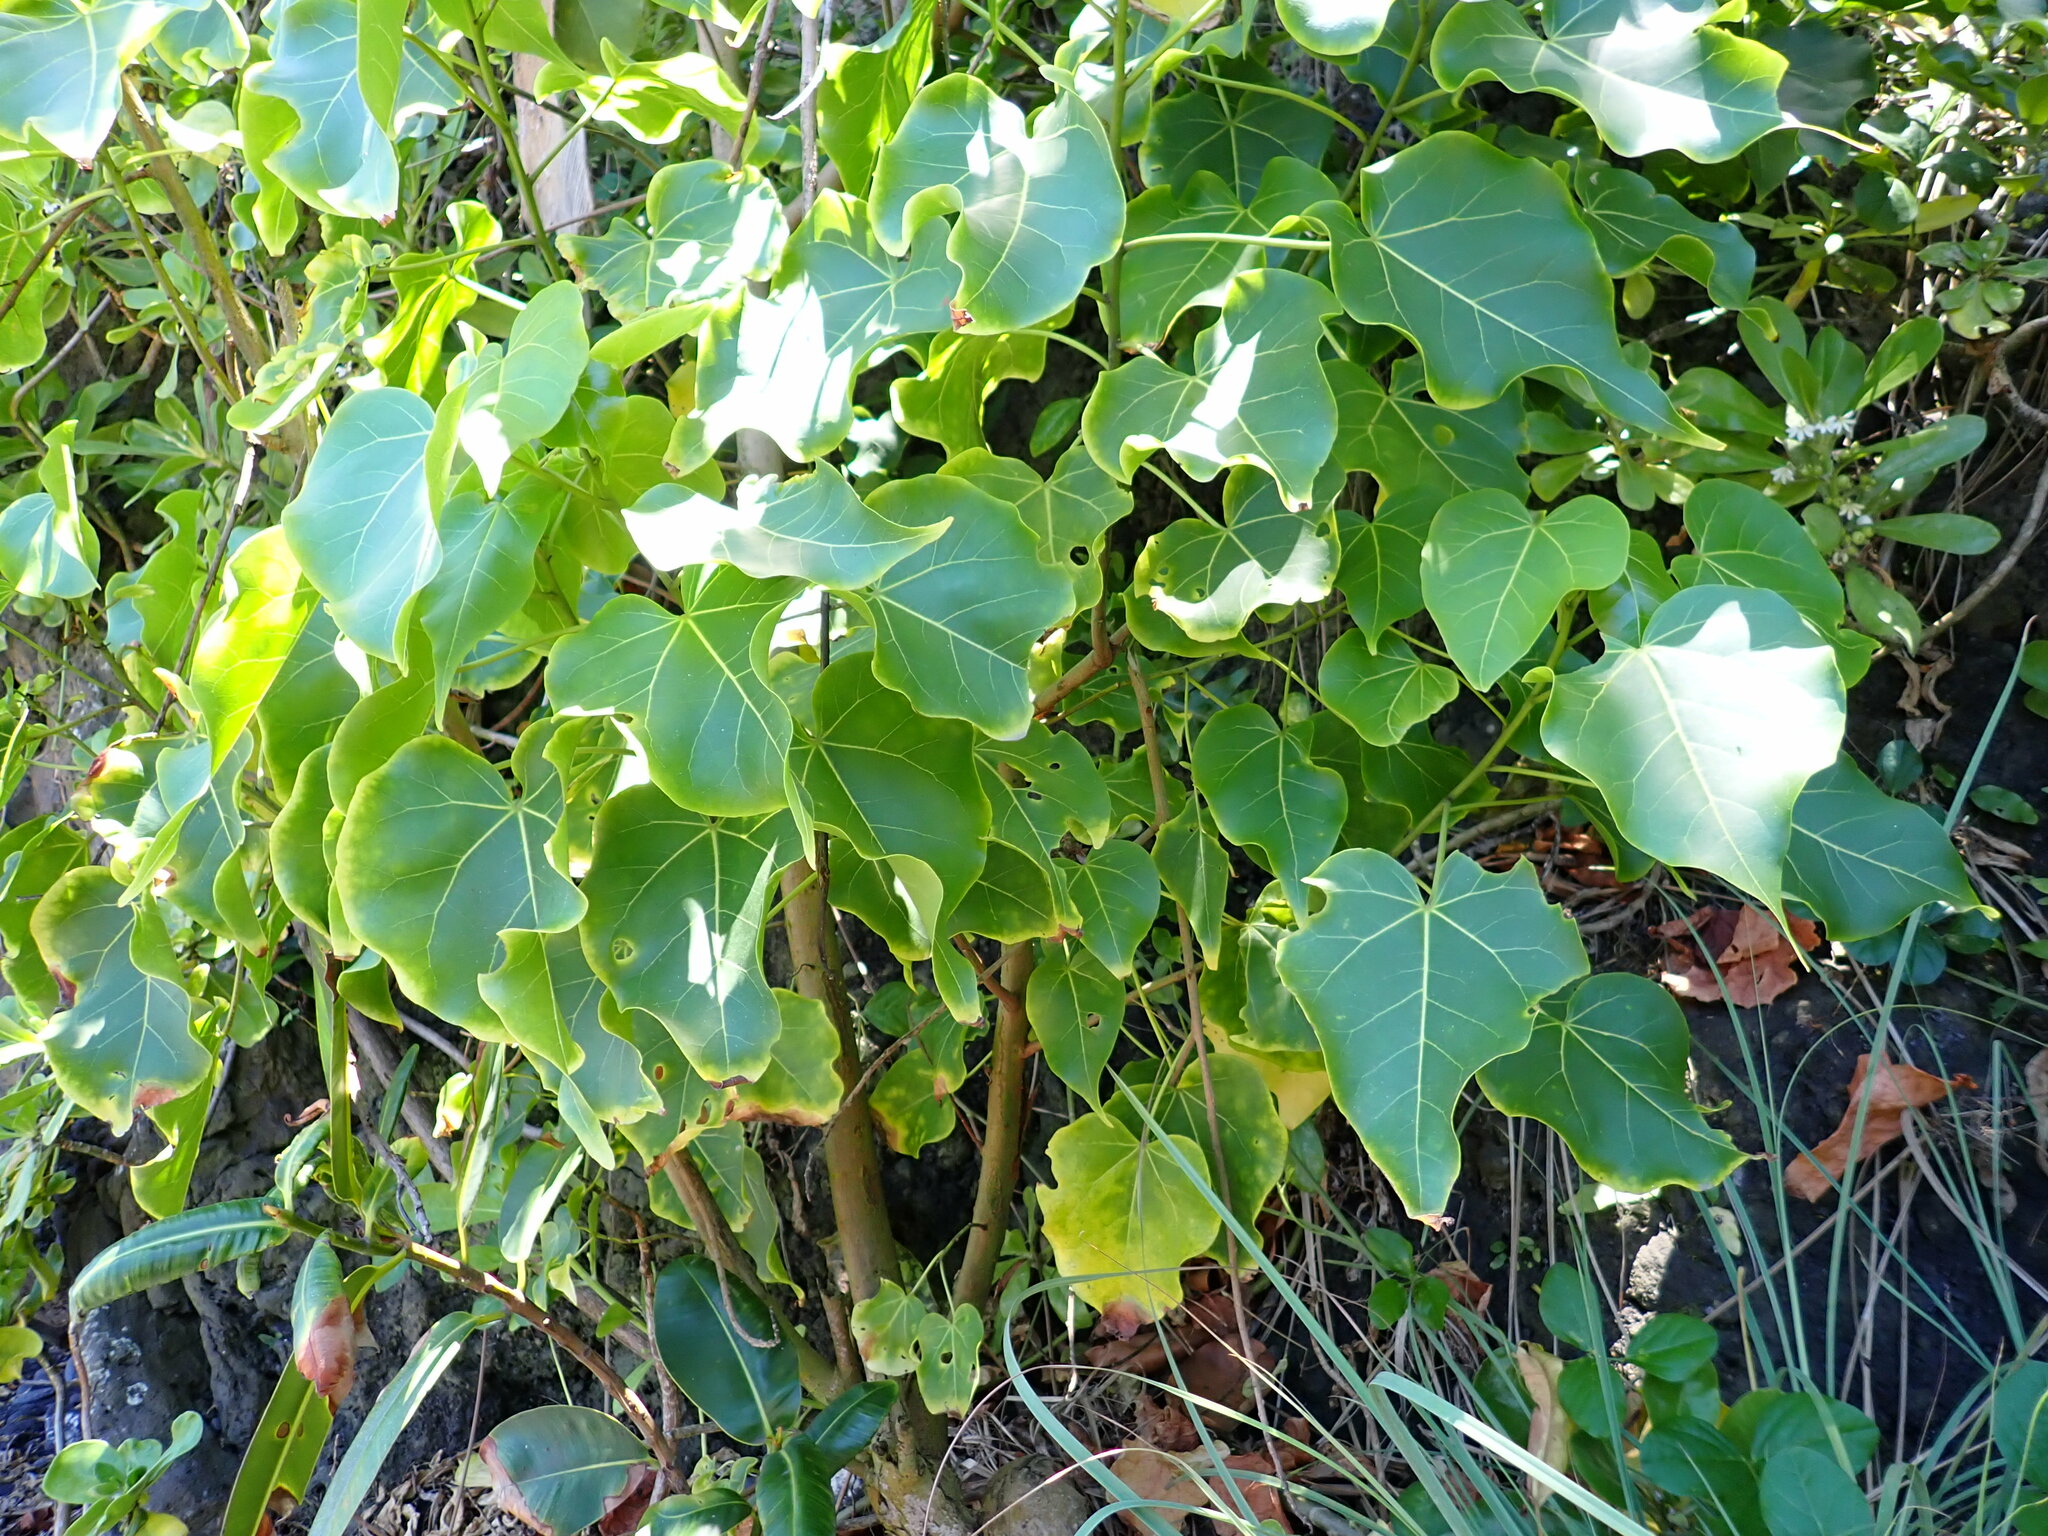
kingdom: Plantae
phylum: Tracheophyta
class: Magnoliopsida
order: Malvales
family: Malvaceae
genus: Thespesia
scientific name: Thespesia populnea
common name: Seaside mahoe
